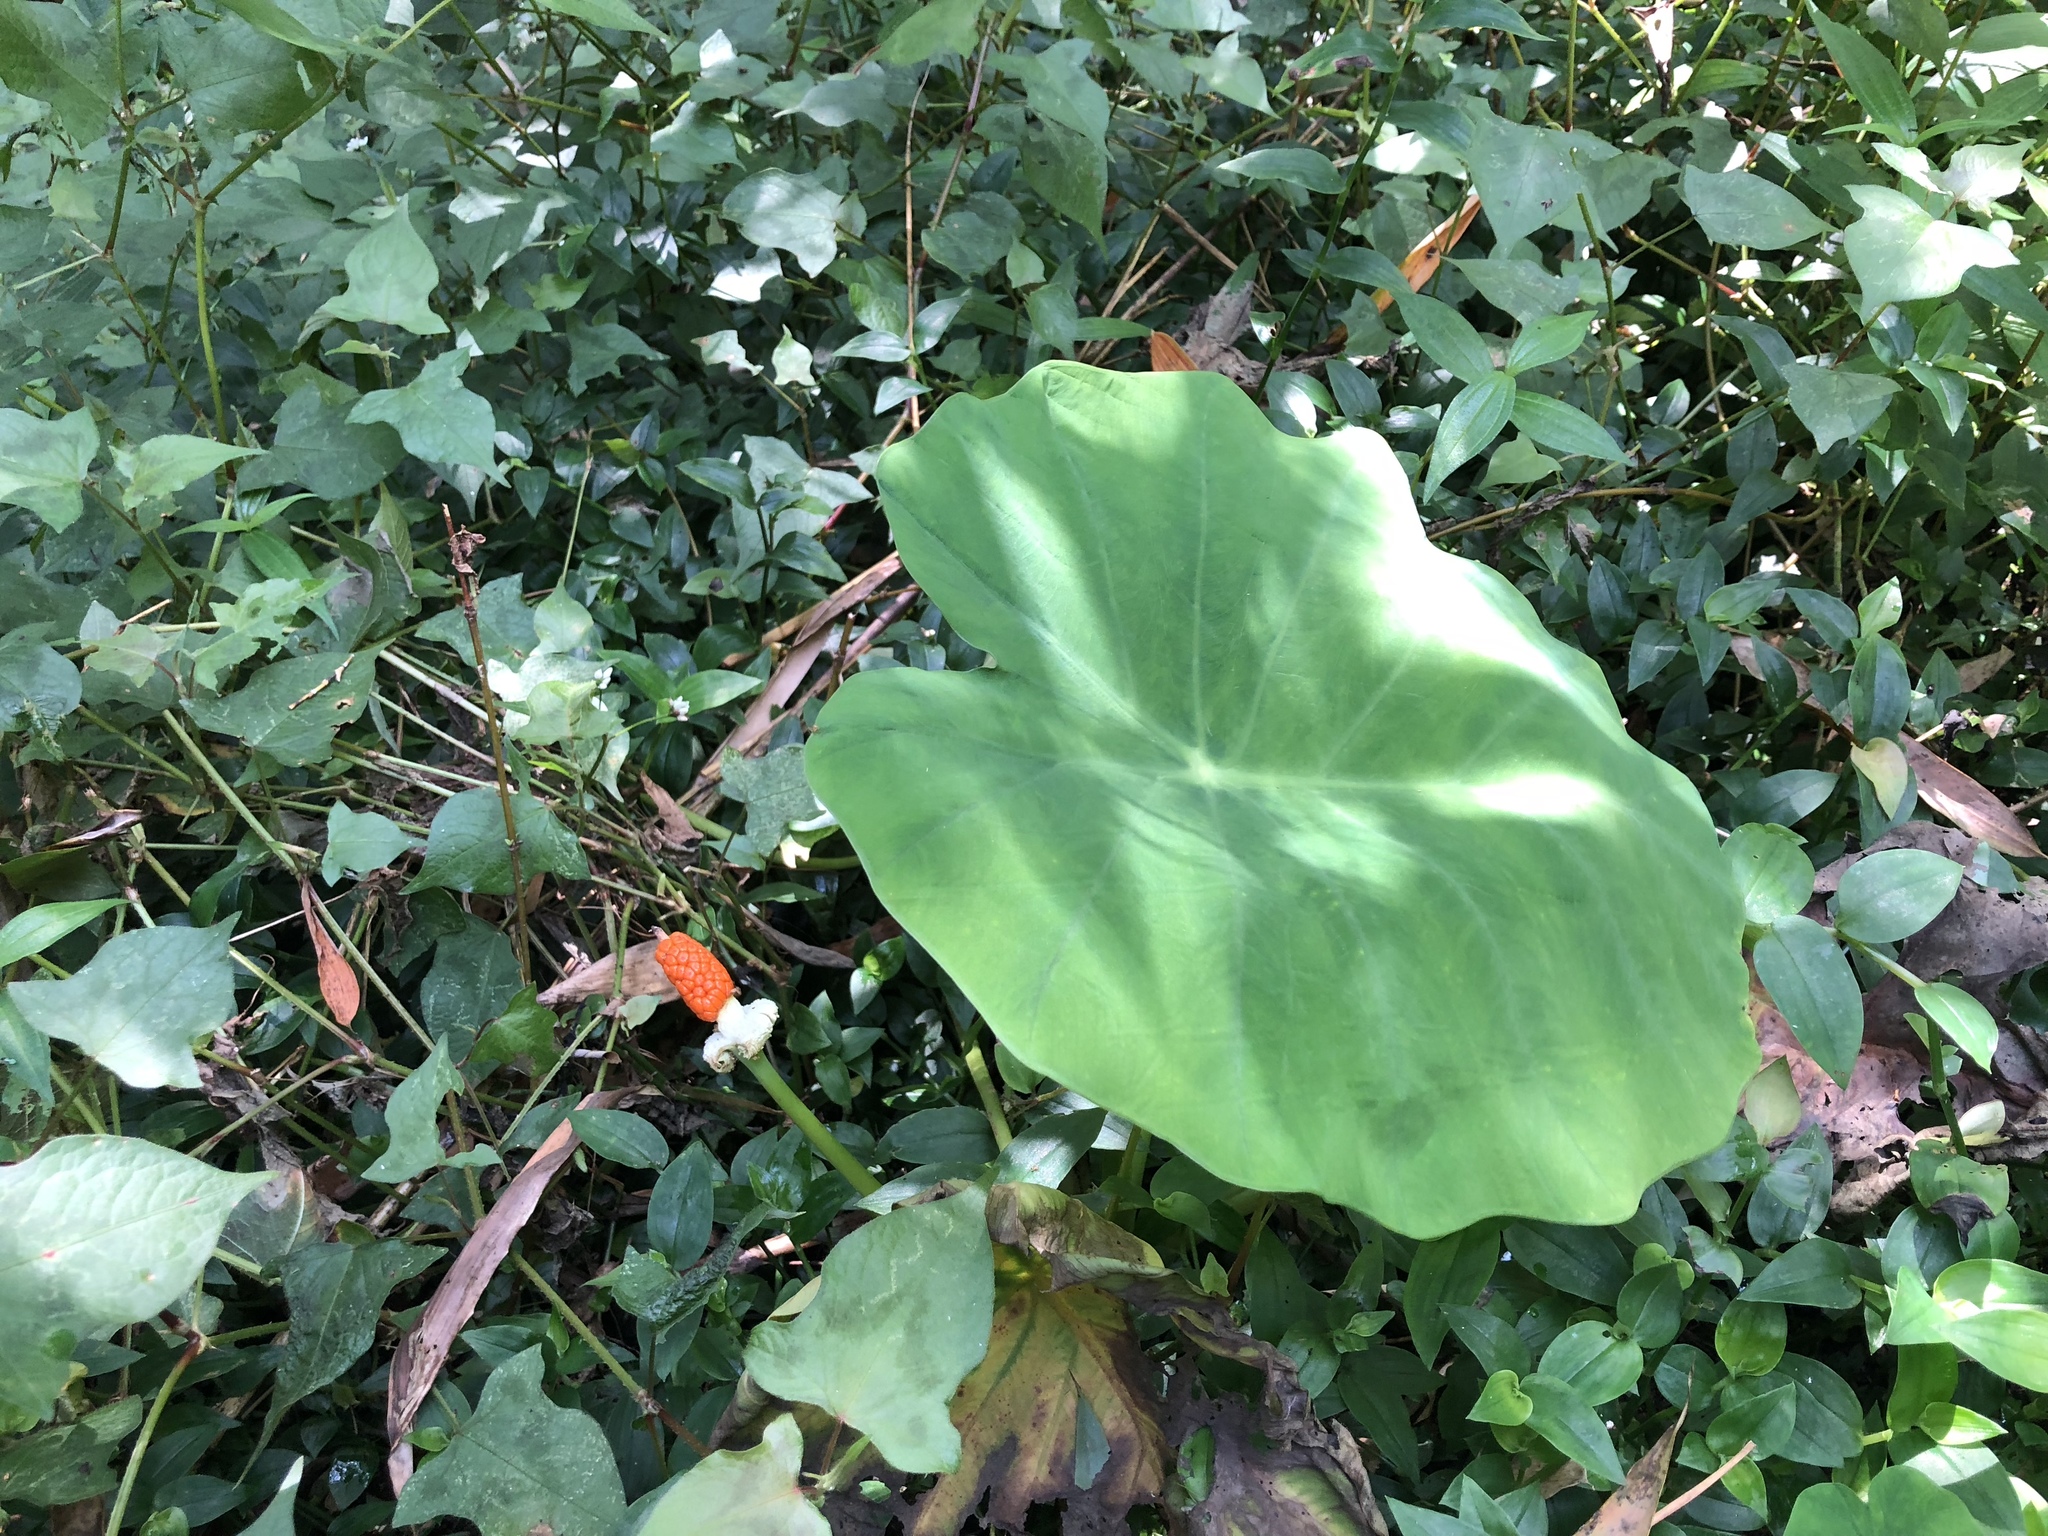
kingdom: Plantae
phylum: Tracheophyta
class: Liliopsida
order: Alismatales
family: Araceae
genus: Colocasia
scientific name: Colocasia esculenta
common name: Taro
